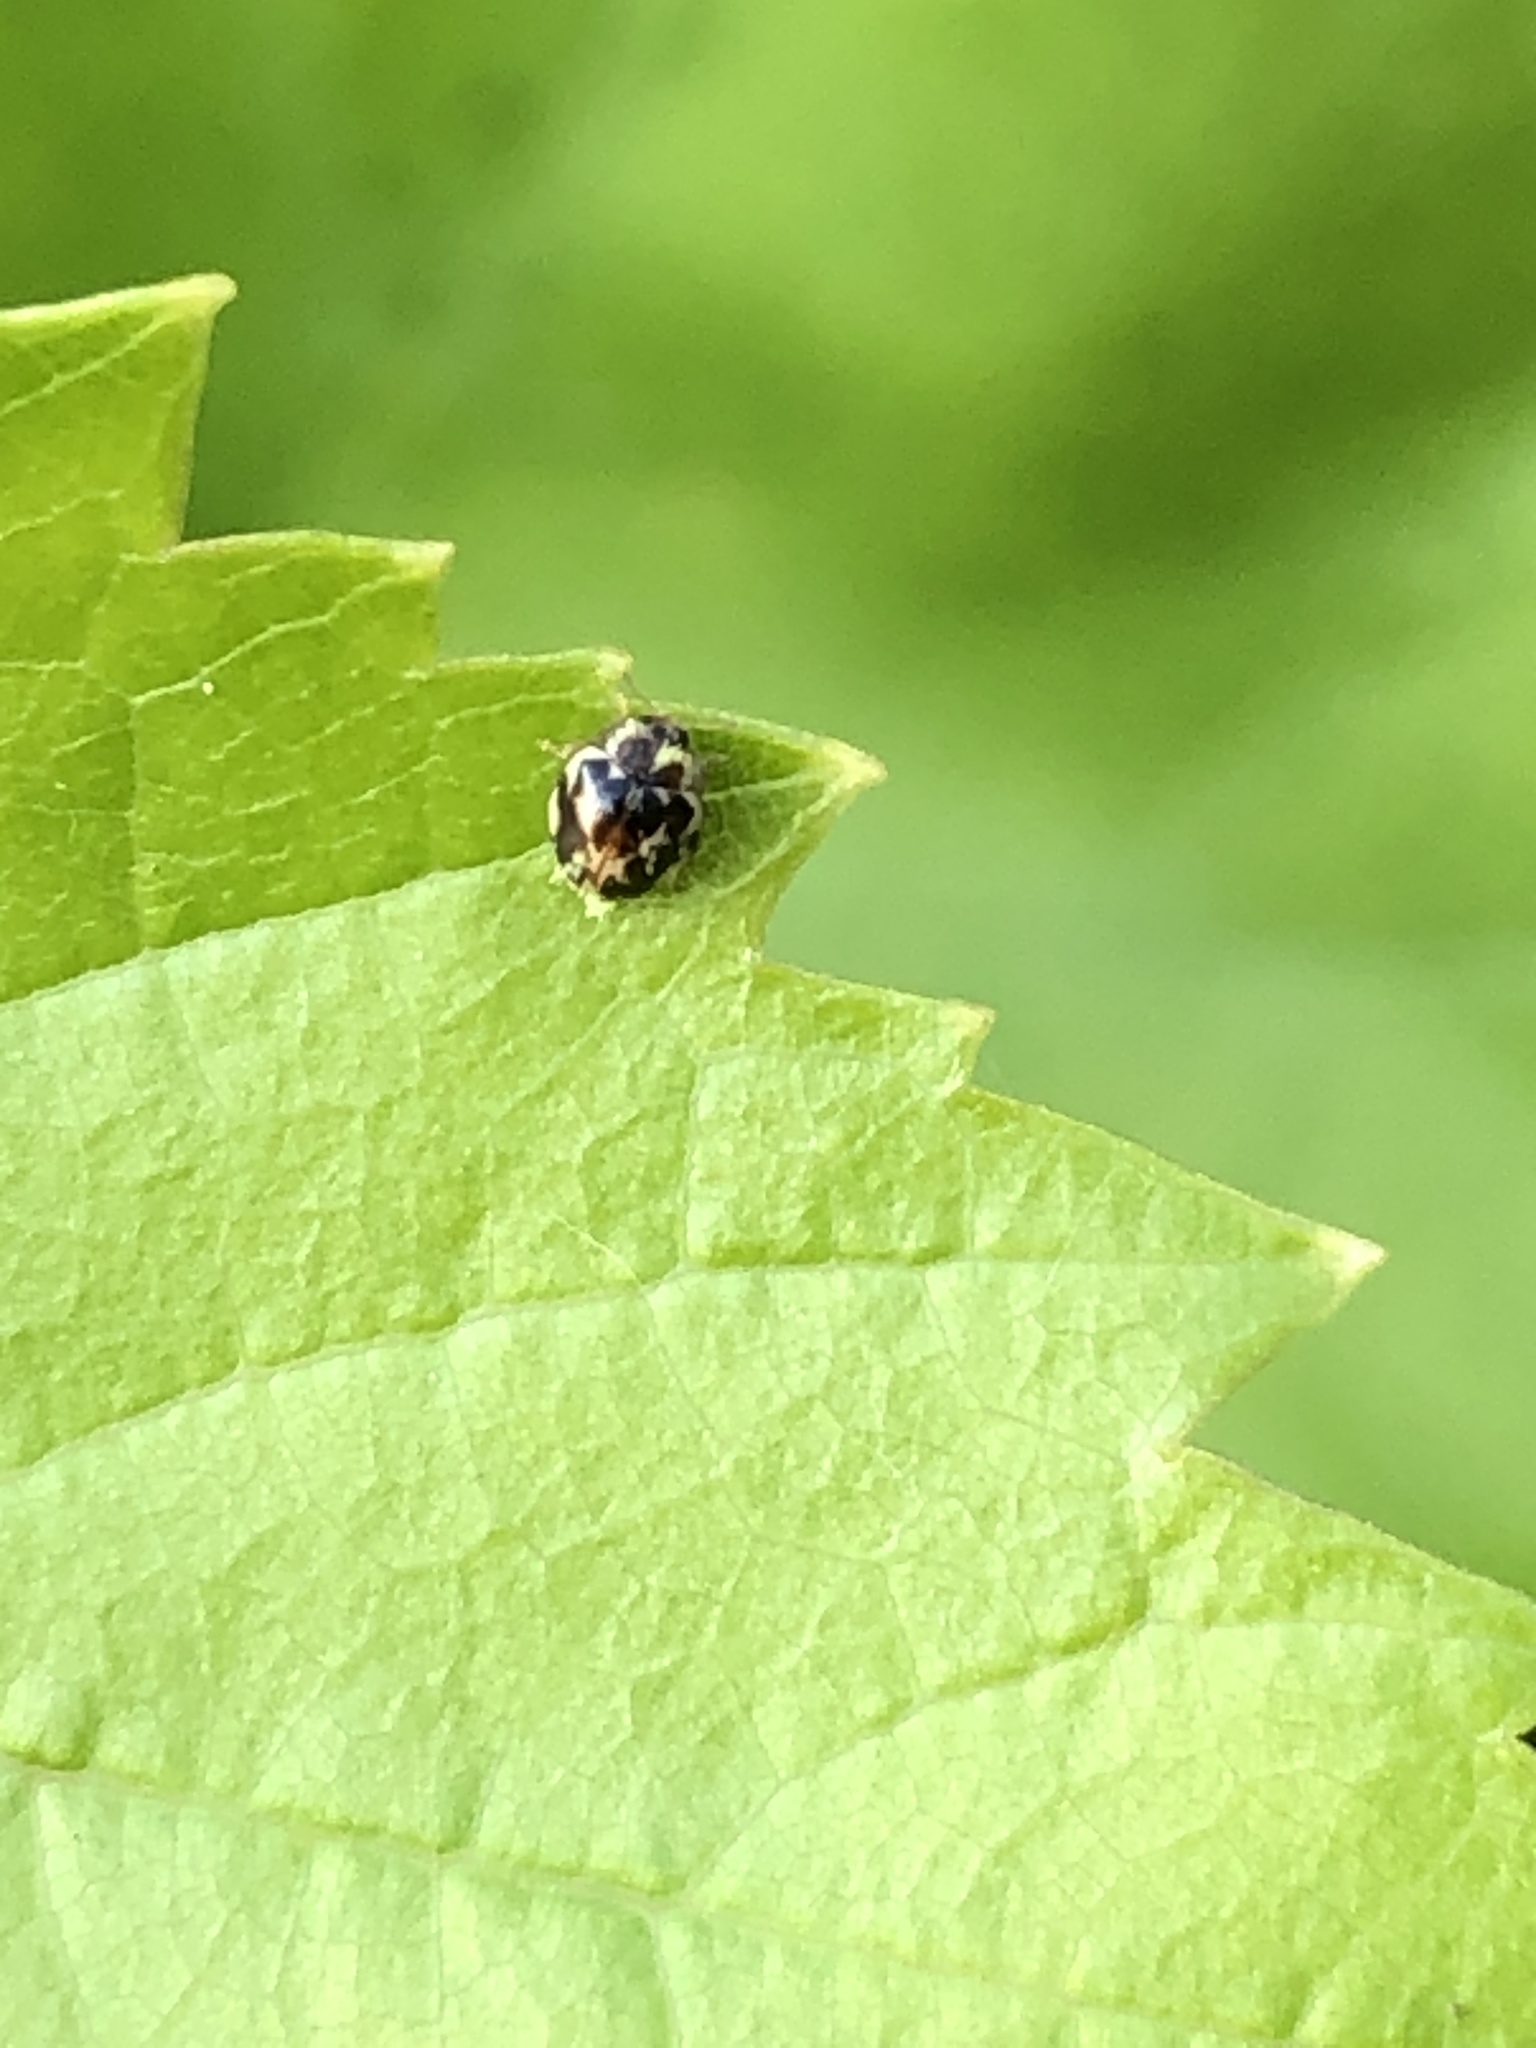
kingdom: Animalia
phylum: Arthropoda
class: Insecta
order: Coleoptera
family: Coccinellidae
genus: Psyllobora
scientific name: Psyllobora vigintimaculata
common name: Ladybird beetle
